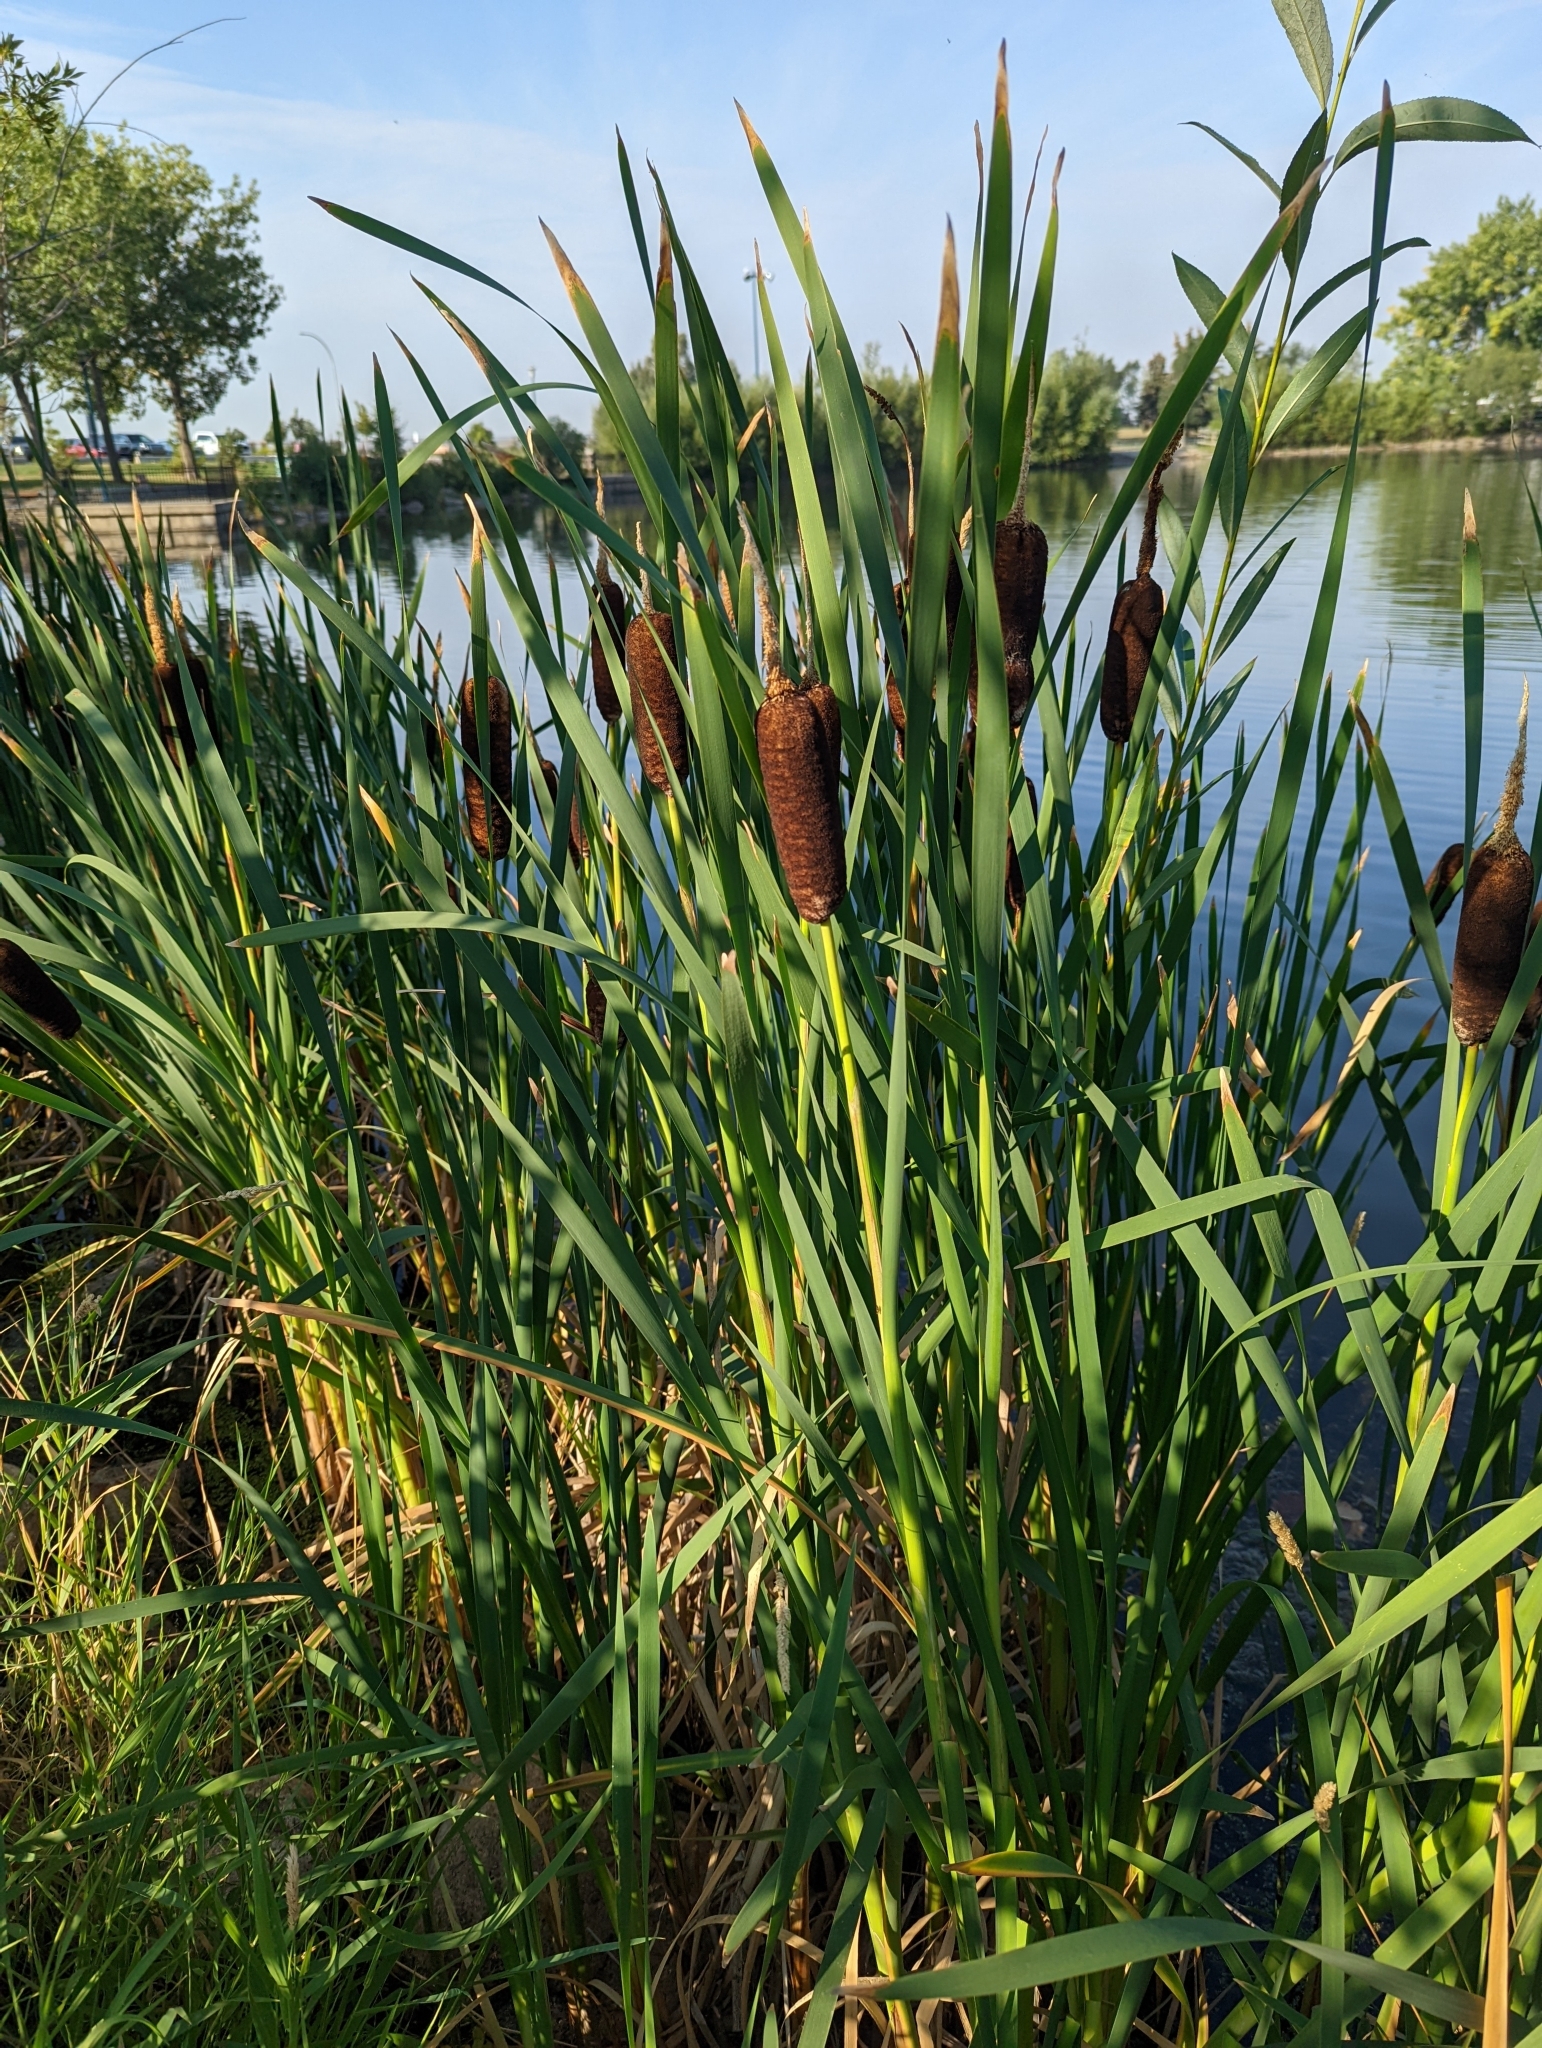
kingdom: Plantae
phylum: Tracheophyta
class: Liliopsida
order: Poales
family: Typhaceae
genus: Typha
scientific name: Typha latifolia
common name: Broadleaf cattail
